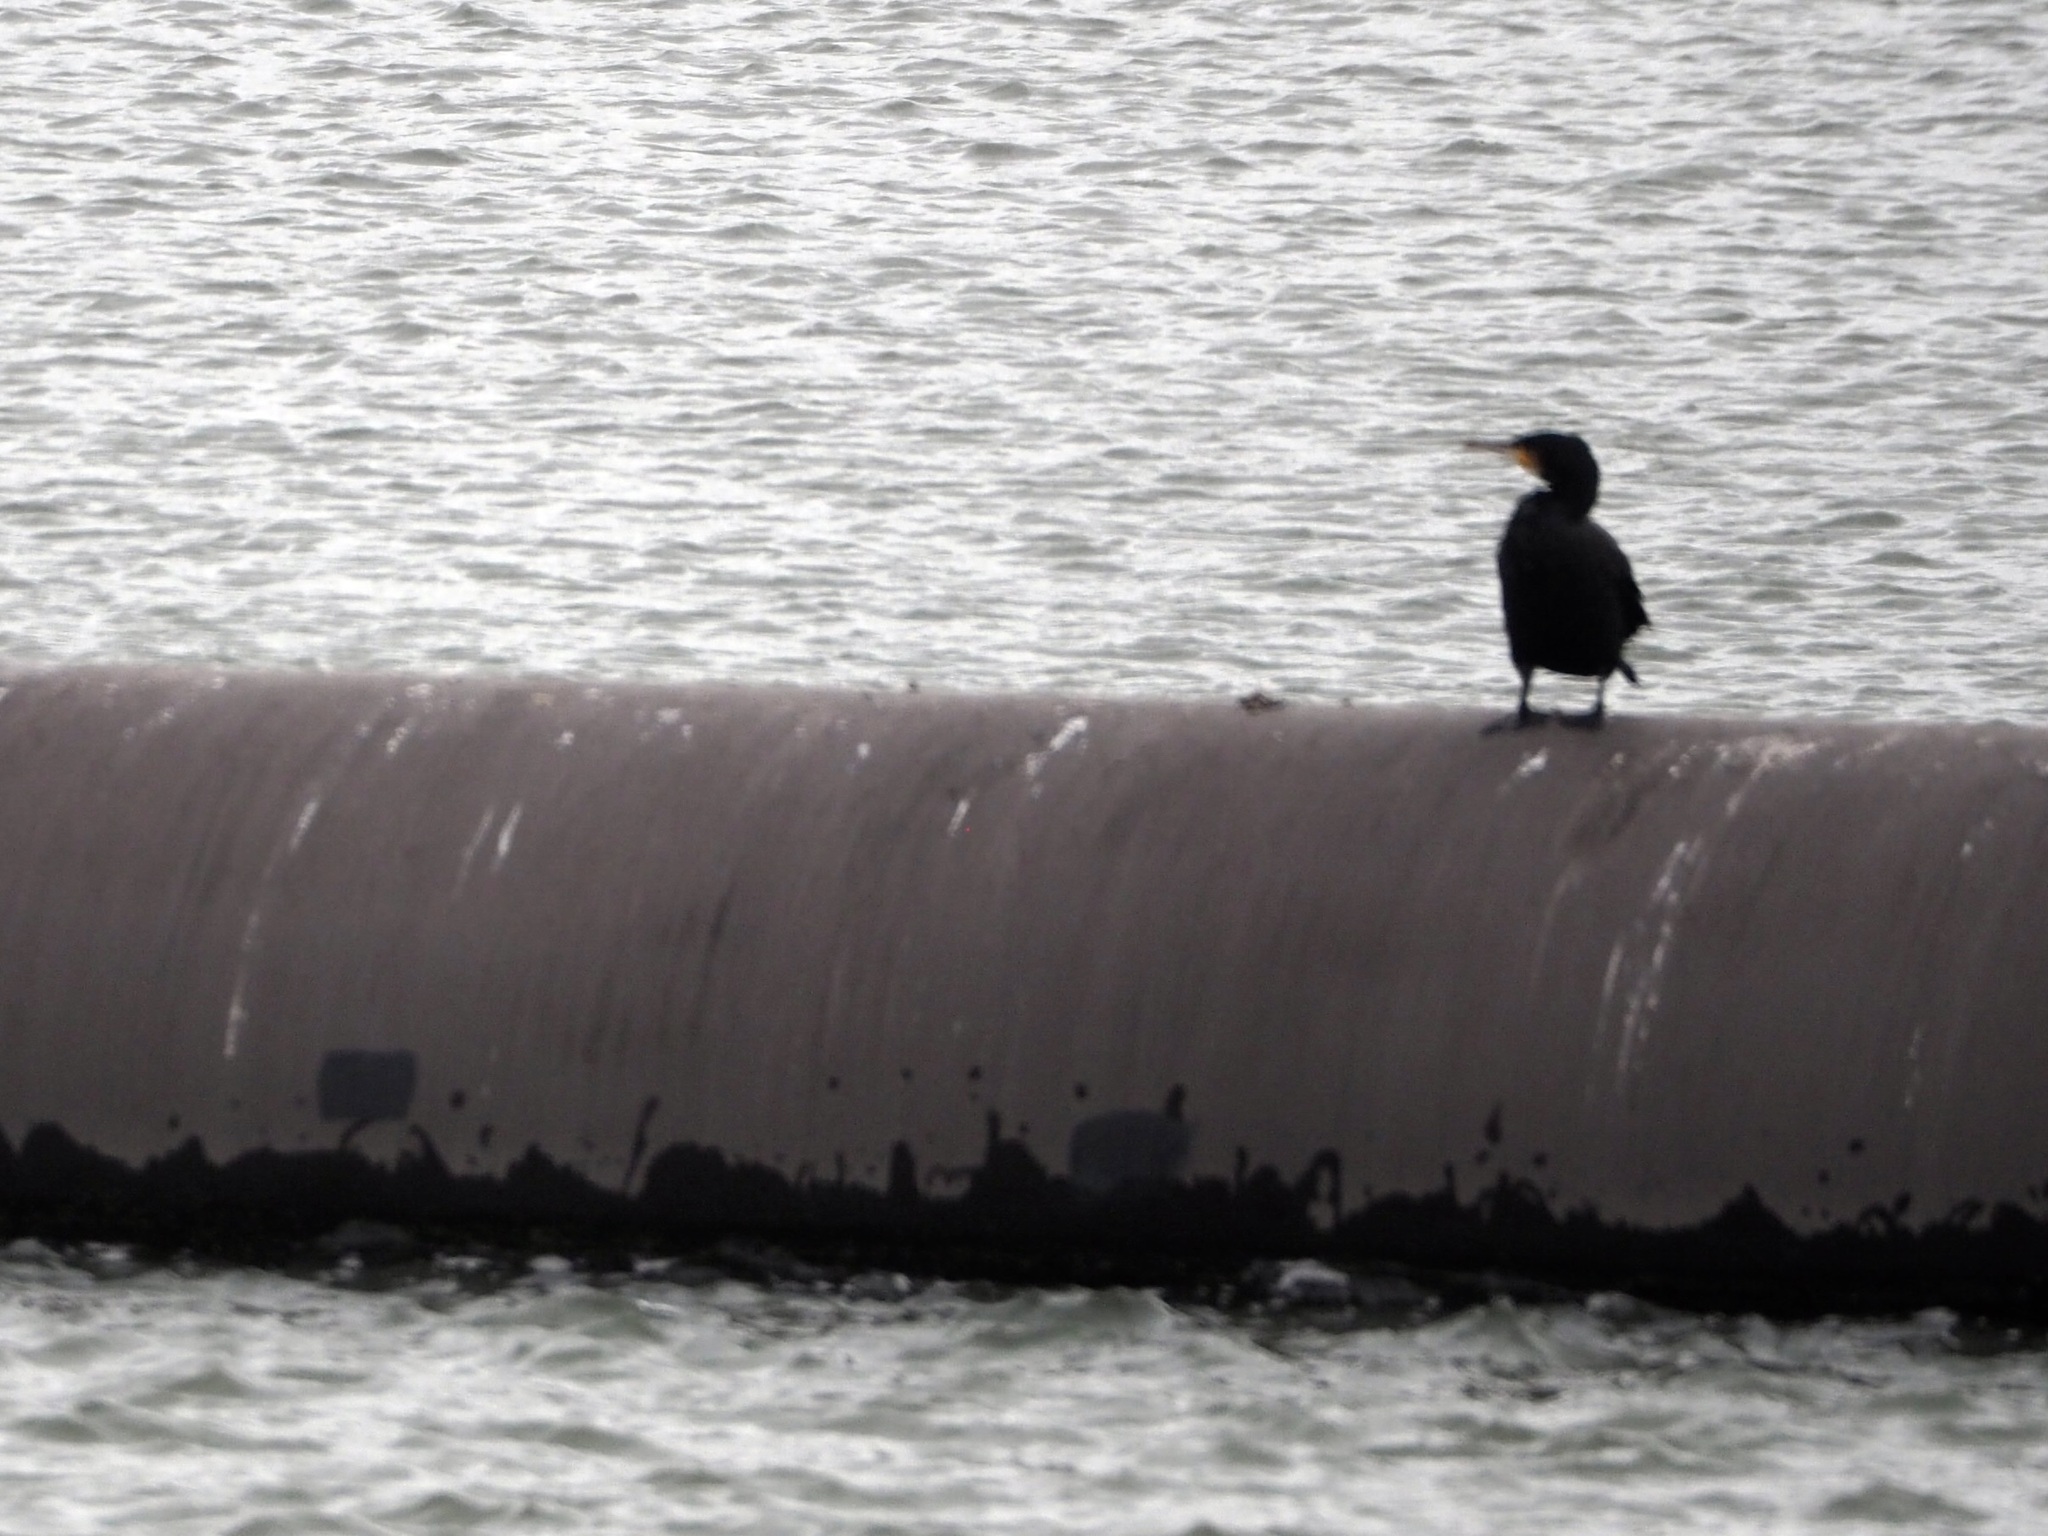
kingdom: Animalia
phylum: Chordata
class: Aves
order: Suliformes
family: Phalacrocoracidae
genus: Phalacrocorax
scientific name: Phalacrocorax carbo
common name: Great cormorant
